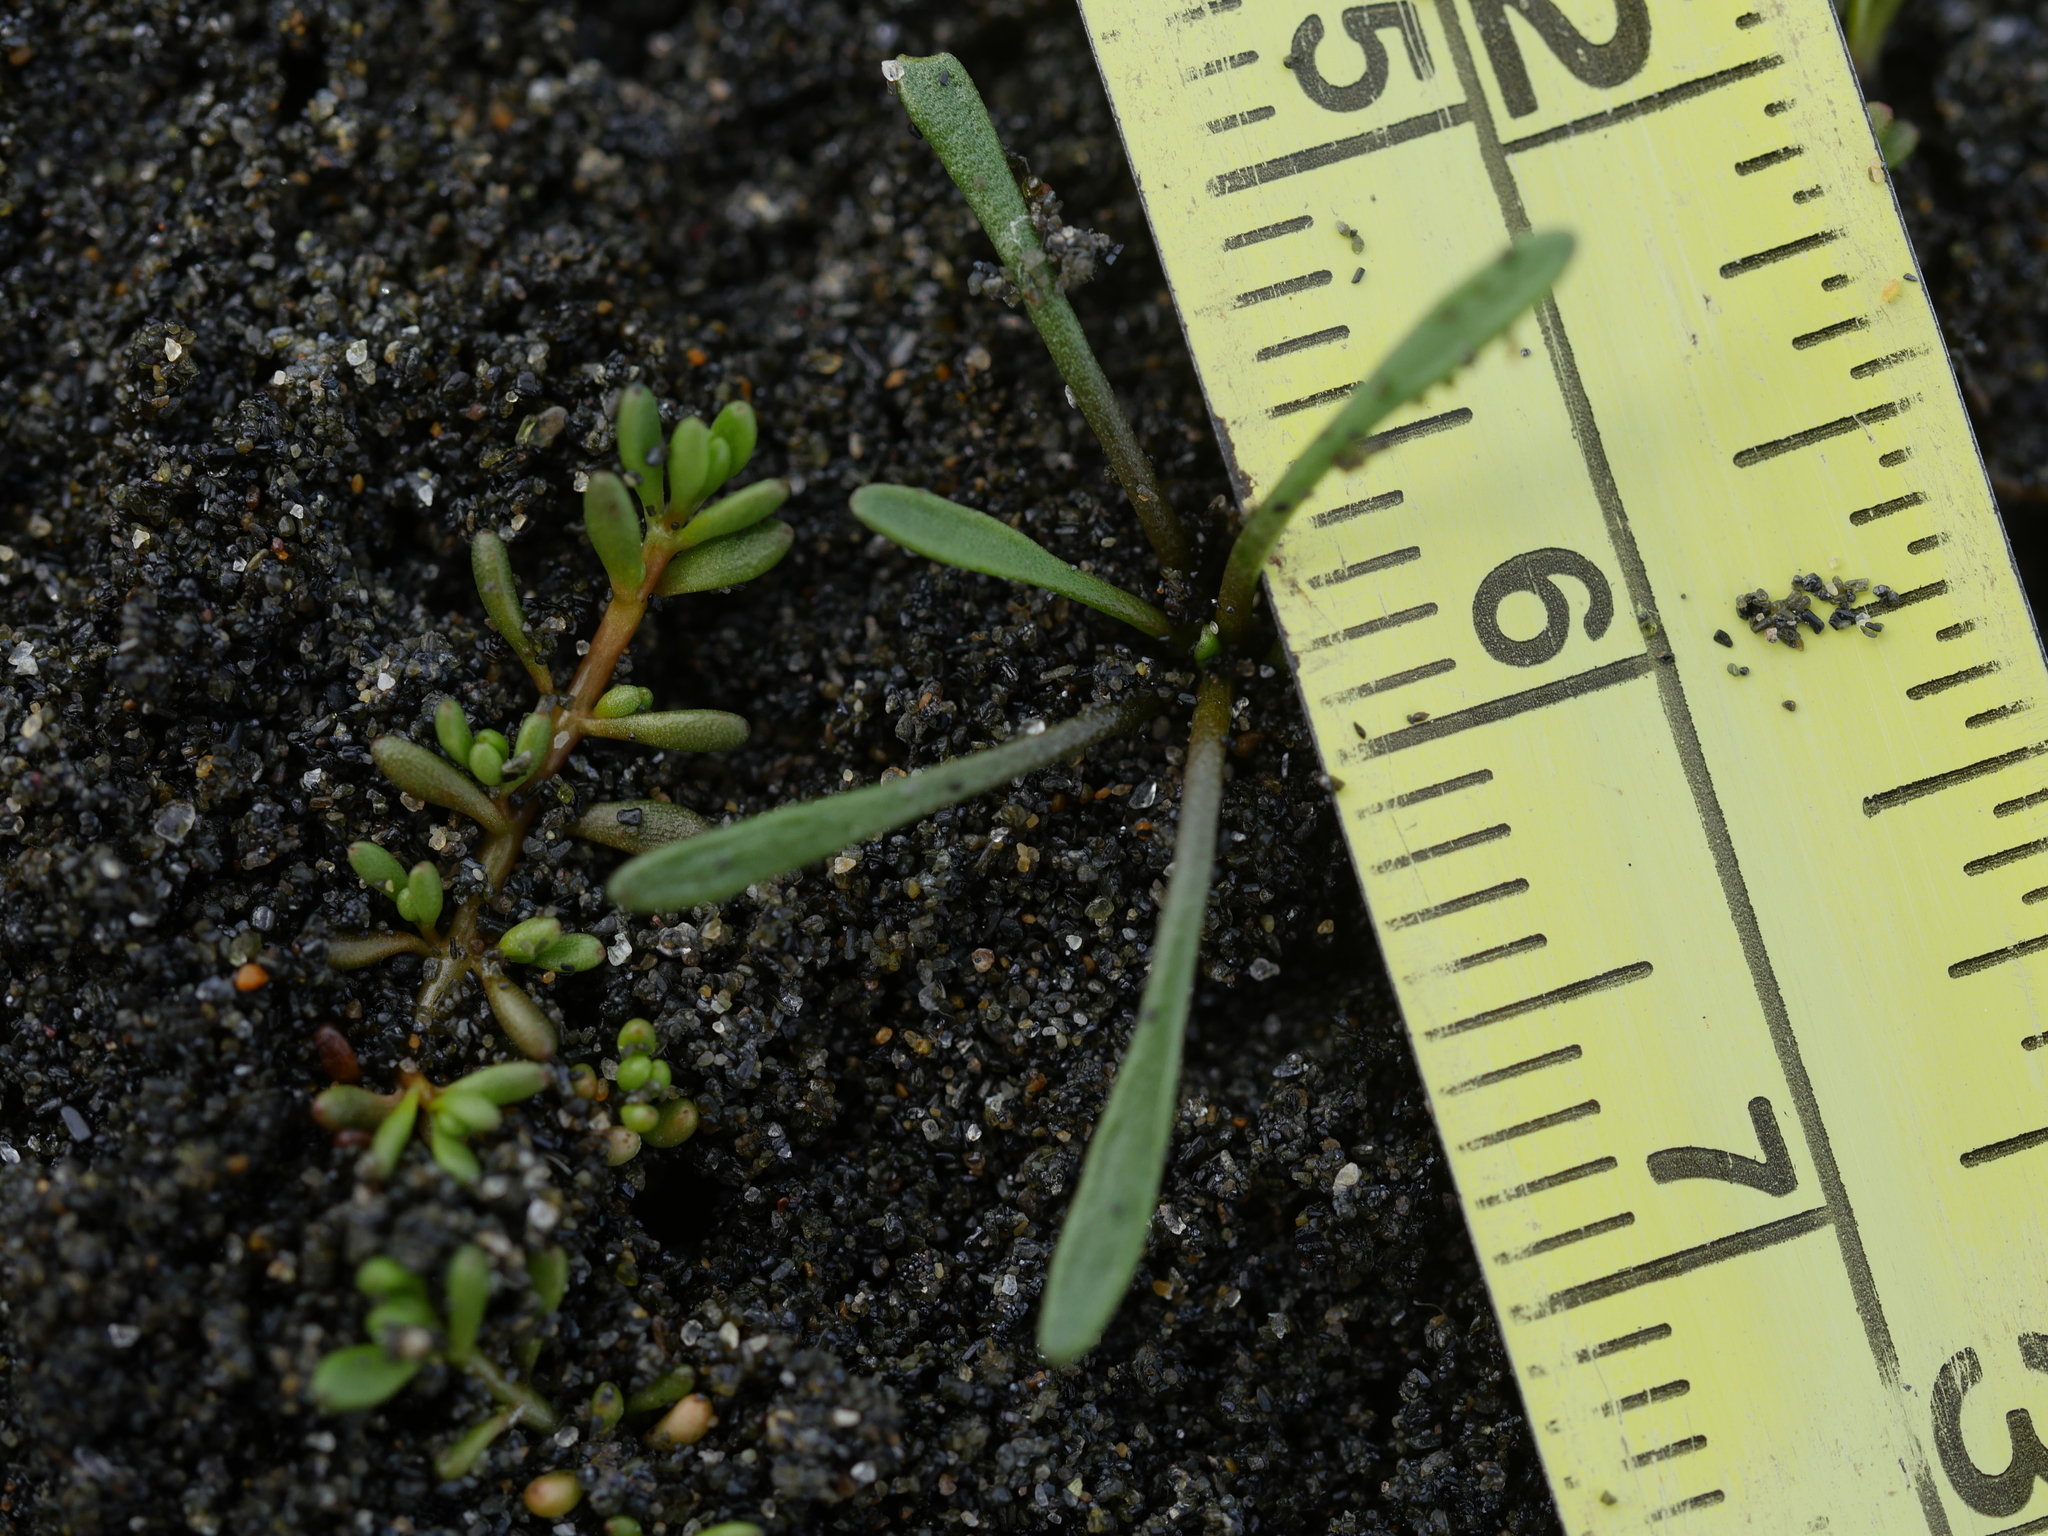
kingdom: Plantae
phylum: Tracheophyta
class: Magnoliopsida
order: Lamiales
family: Scrophulariaceae
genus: Limosella
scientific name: Limosella australis
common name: Welsh mudwort
